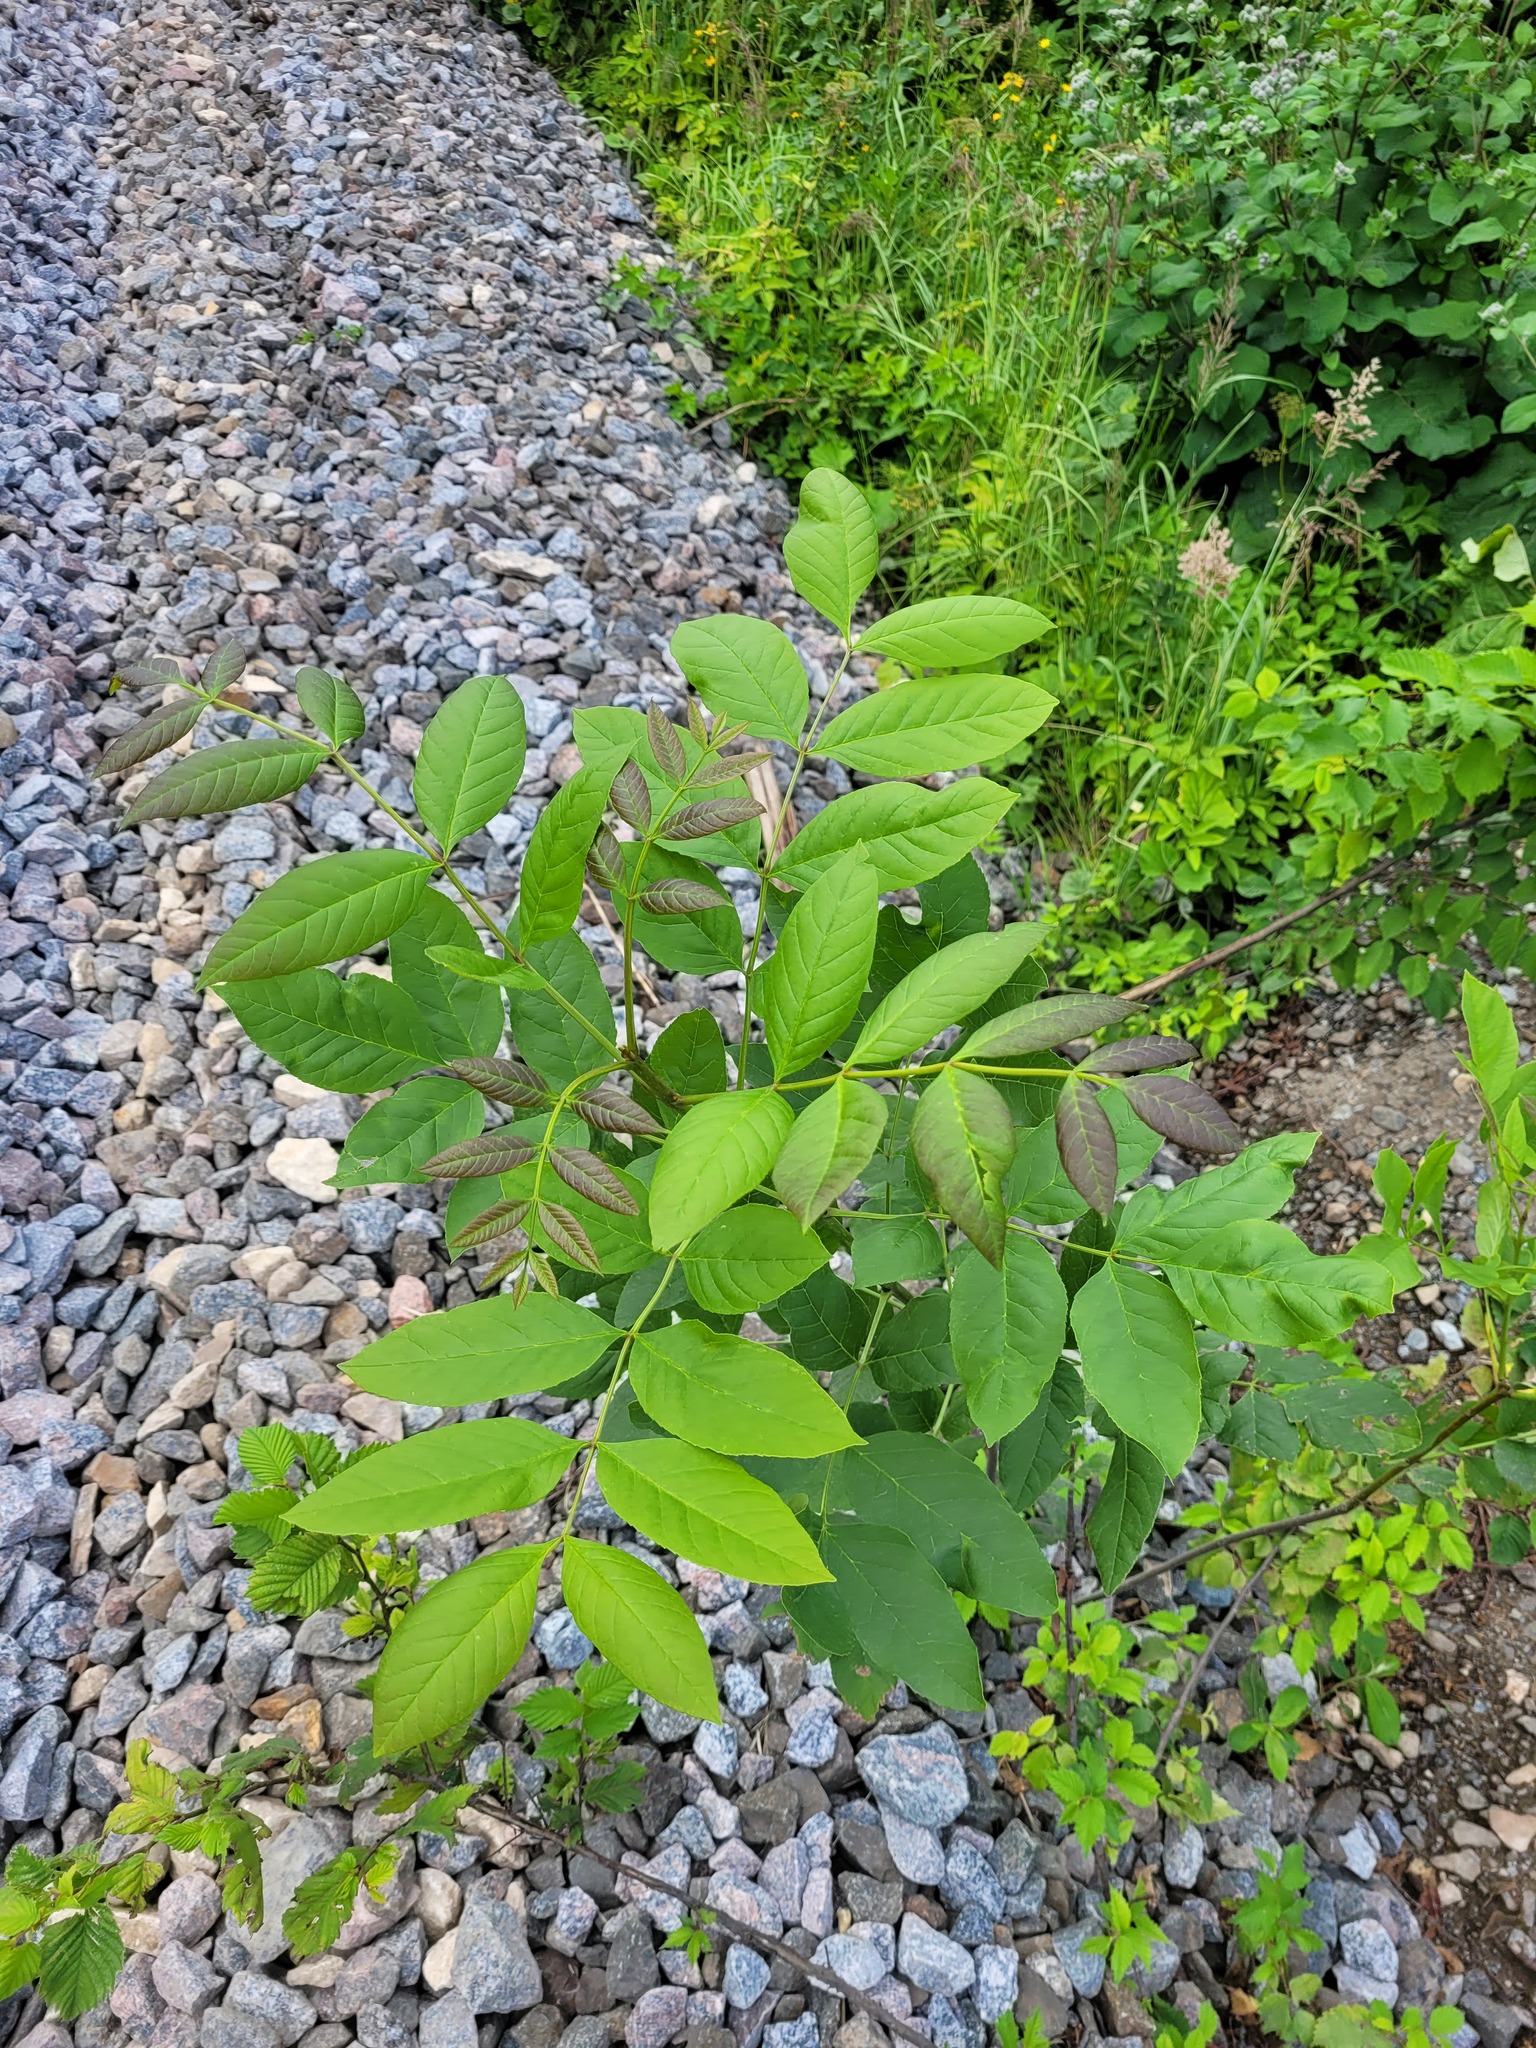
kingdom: Plantae
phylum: Tracheophyta
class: Magnoliopsida
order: Lamiales
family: Oleaceae
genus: Fraxinus
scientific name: Fraxinus pennsylvanica
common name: Green ash
